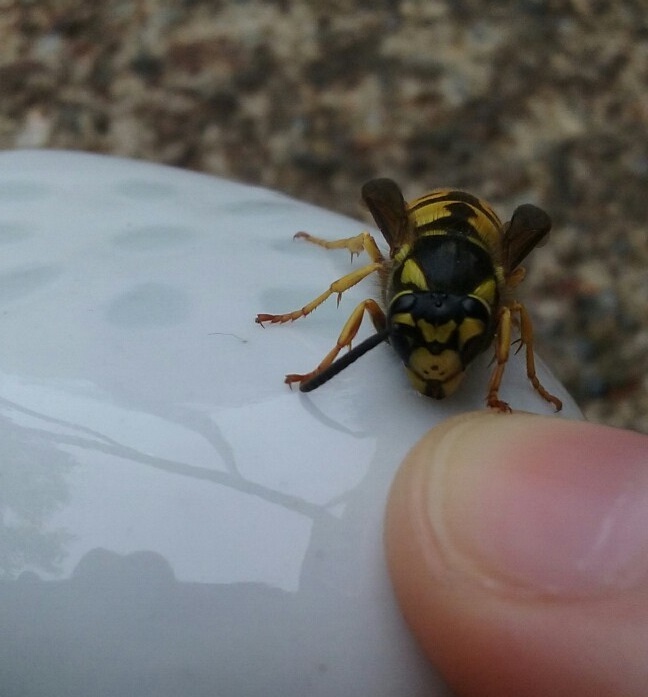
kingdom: Animalia
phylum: Arthropoda
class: Insecta
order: Hymenoptera
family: Vespidae
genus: Vespula
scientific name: Vespula germanica
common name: German wasp
